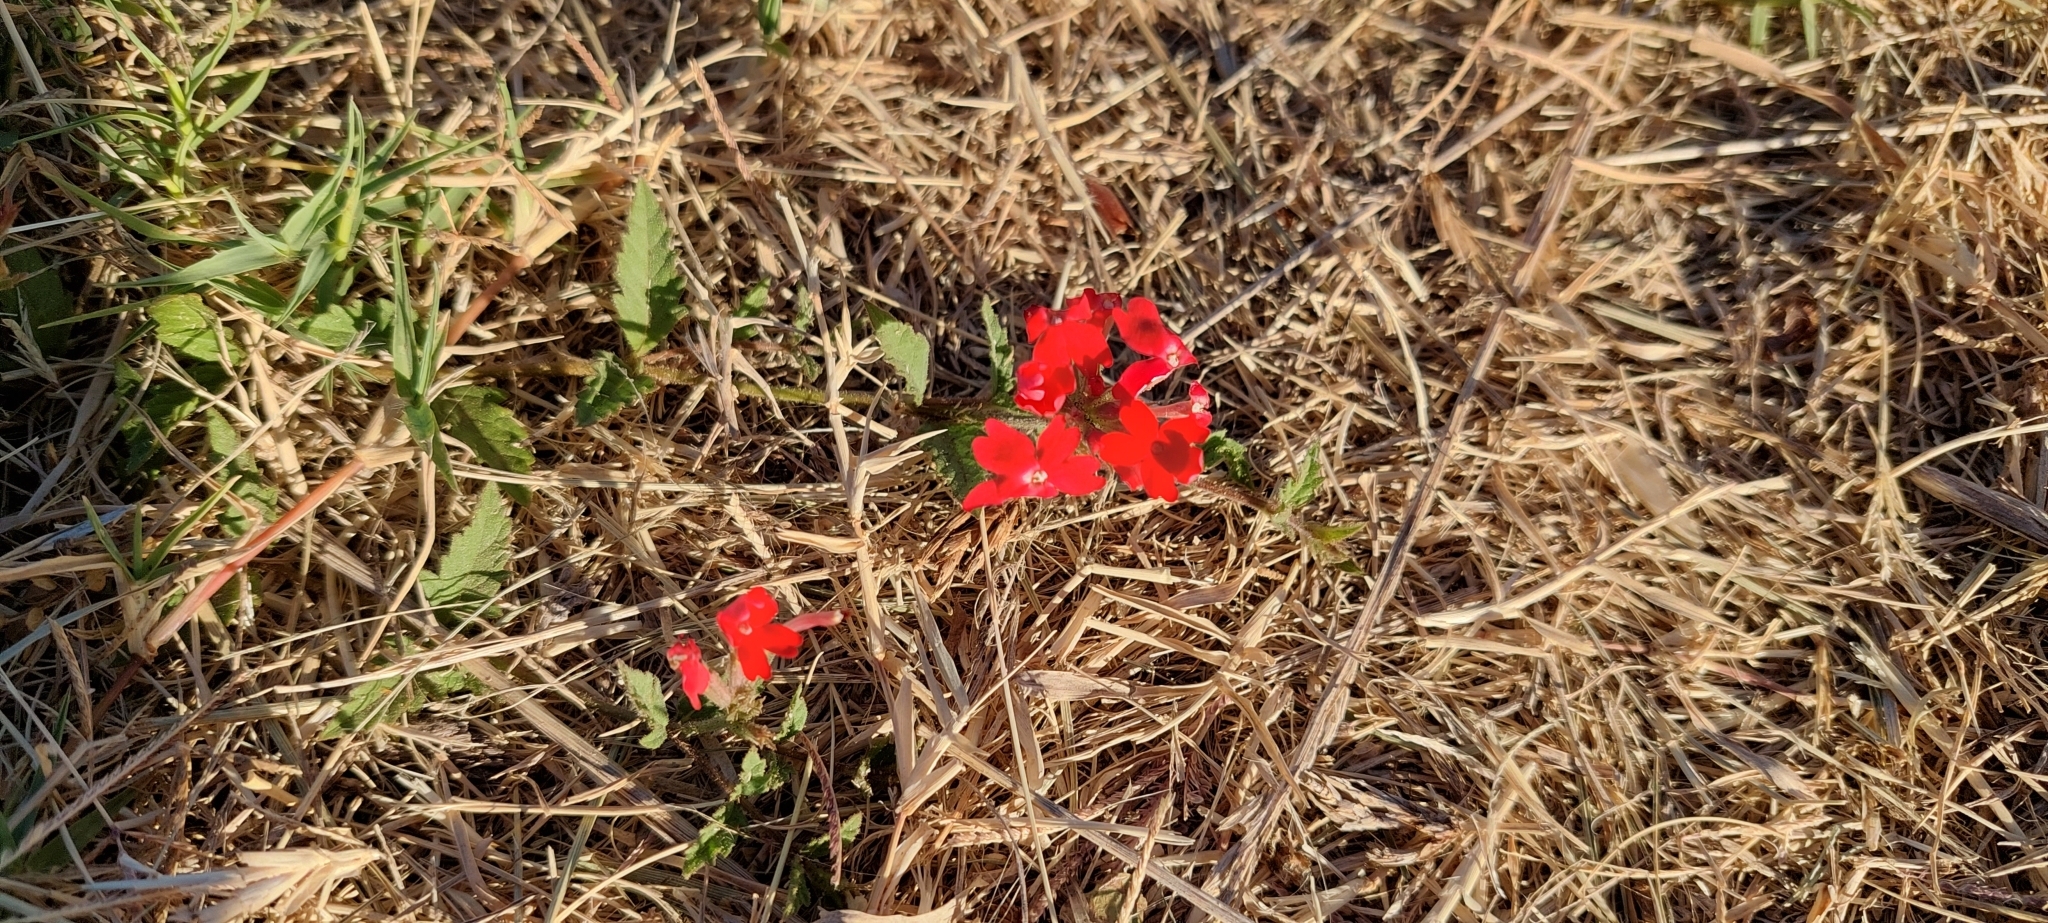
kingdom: Plantae
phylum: Tracheophyta
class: Magnoliopsida
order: Lamiales
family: Verbenaceae
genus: Verbena
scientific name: Verbena peruviana
